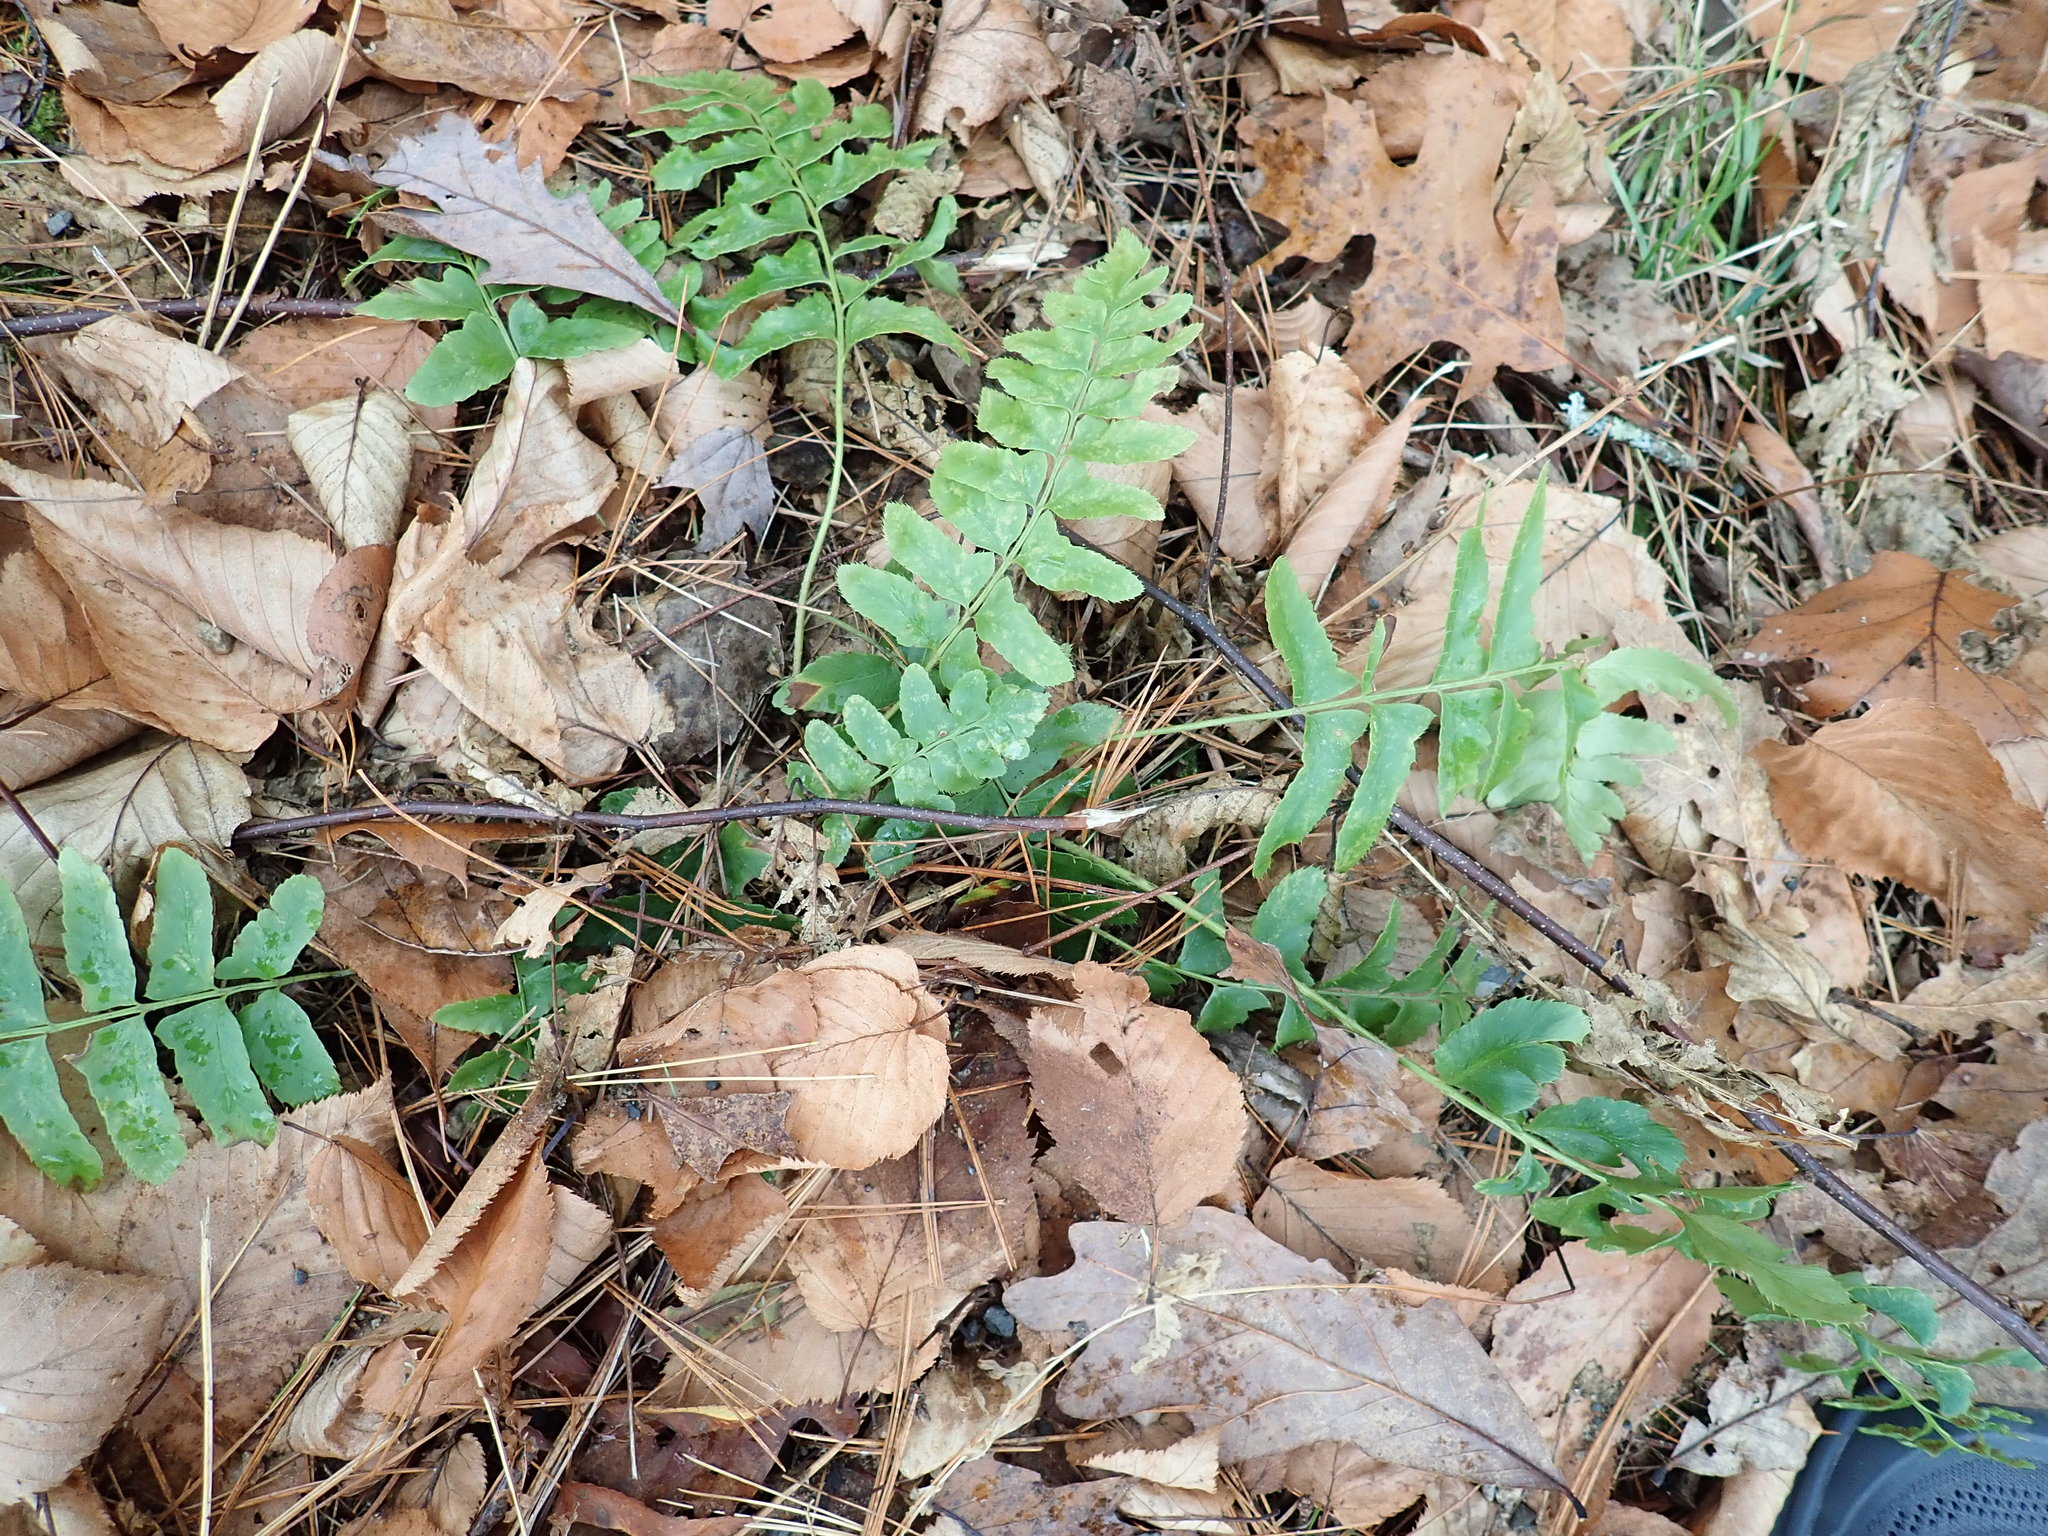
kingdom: Plantae
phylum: Tracheophyta
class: Polypodiopsida
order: Polypodiales
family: Dryopteridaceae
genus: Polystichum
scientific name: Polystichum acrostichoides
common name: Christmas fern
